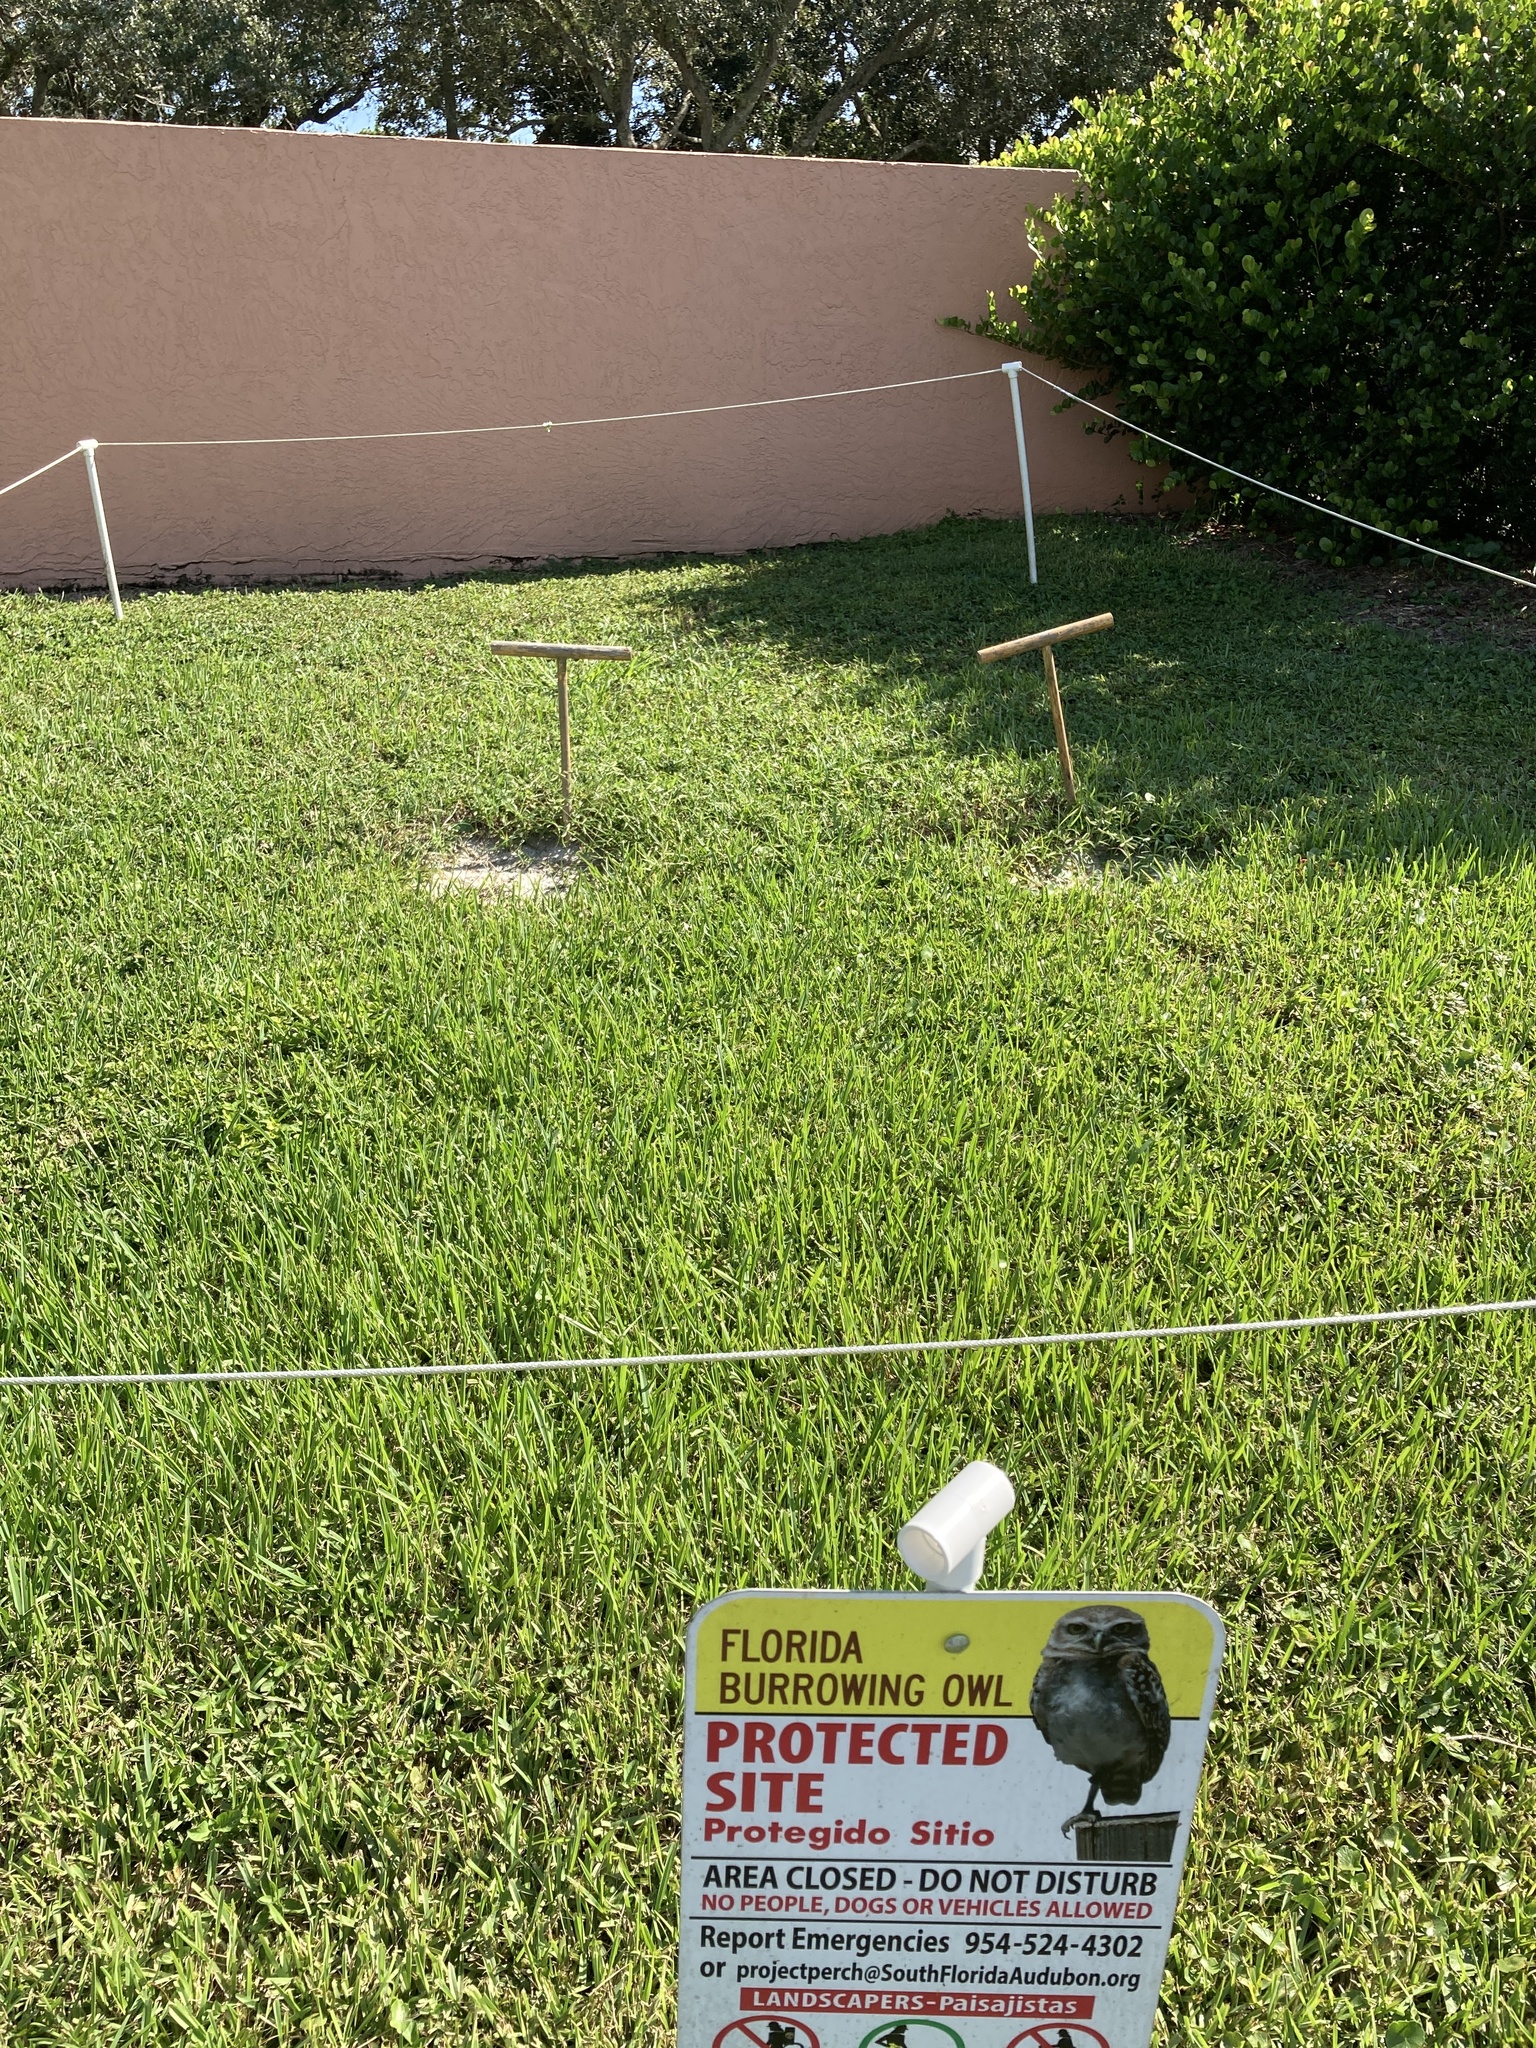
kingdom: Animalia
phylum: Chordata
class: Aves
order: Strigiformes
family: Strigidae
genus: Athene
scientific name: Athene cunicularia
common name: Burrowing owl
